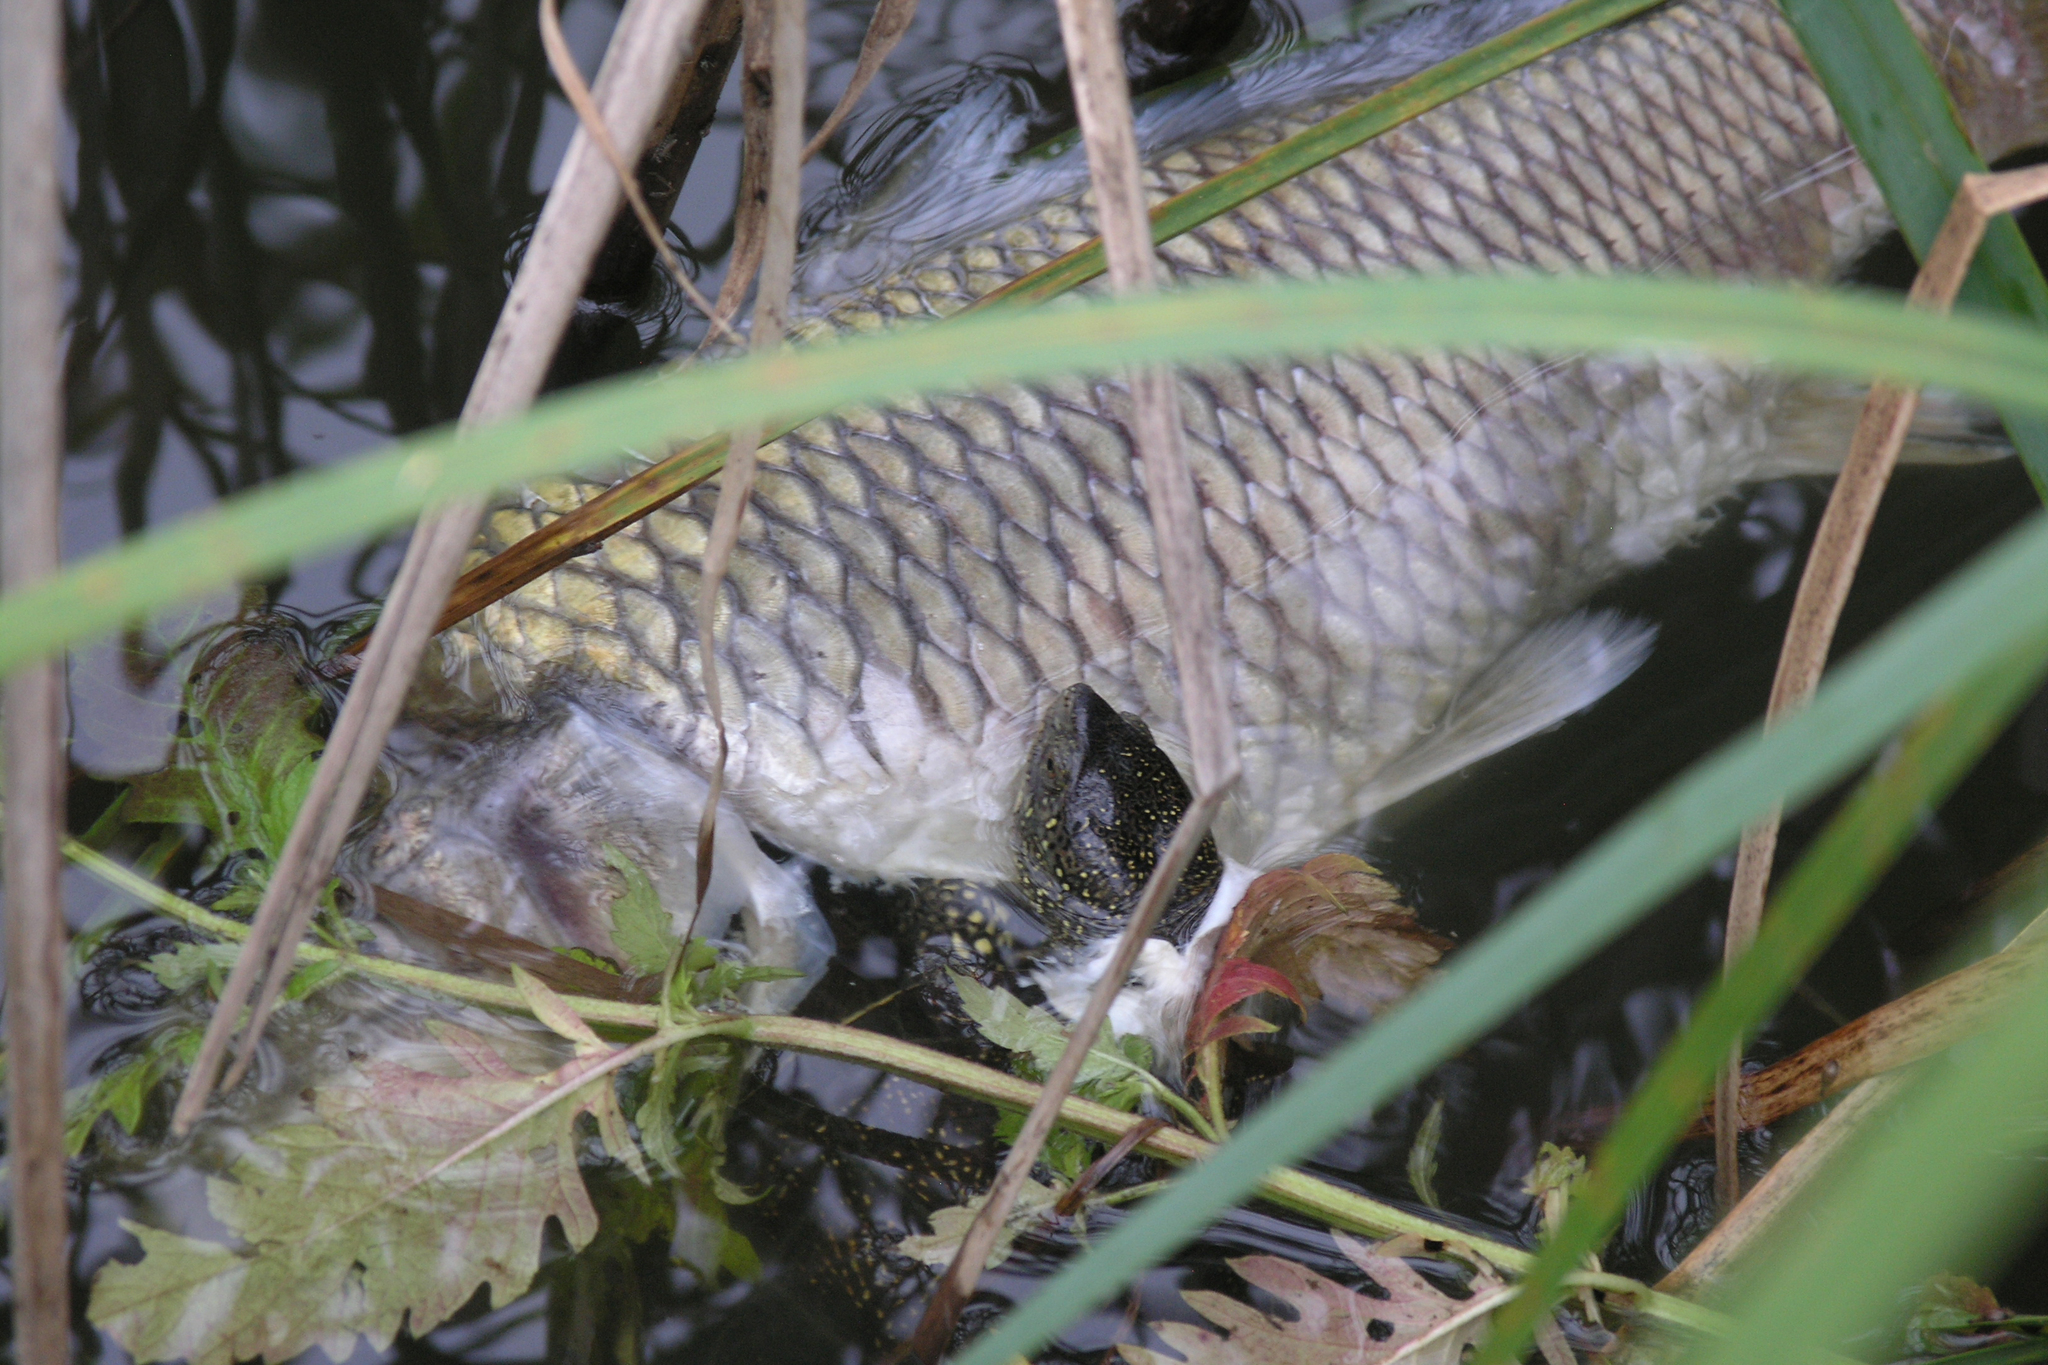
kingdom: Animalia
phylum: Chordata
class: Testudines
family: Emydidae
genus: Emys
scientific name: Emys orbicularis
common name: European pond turtle
